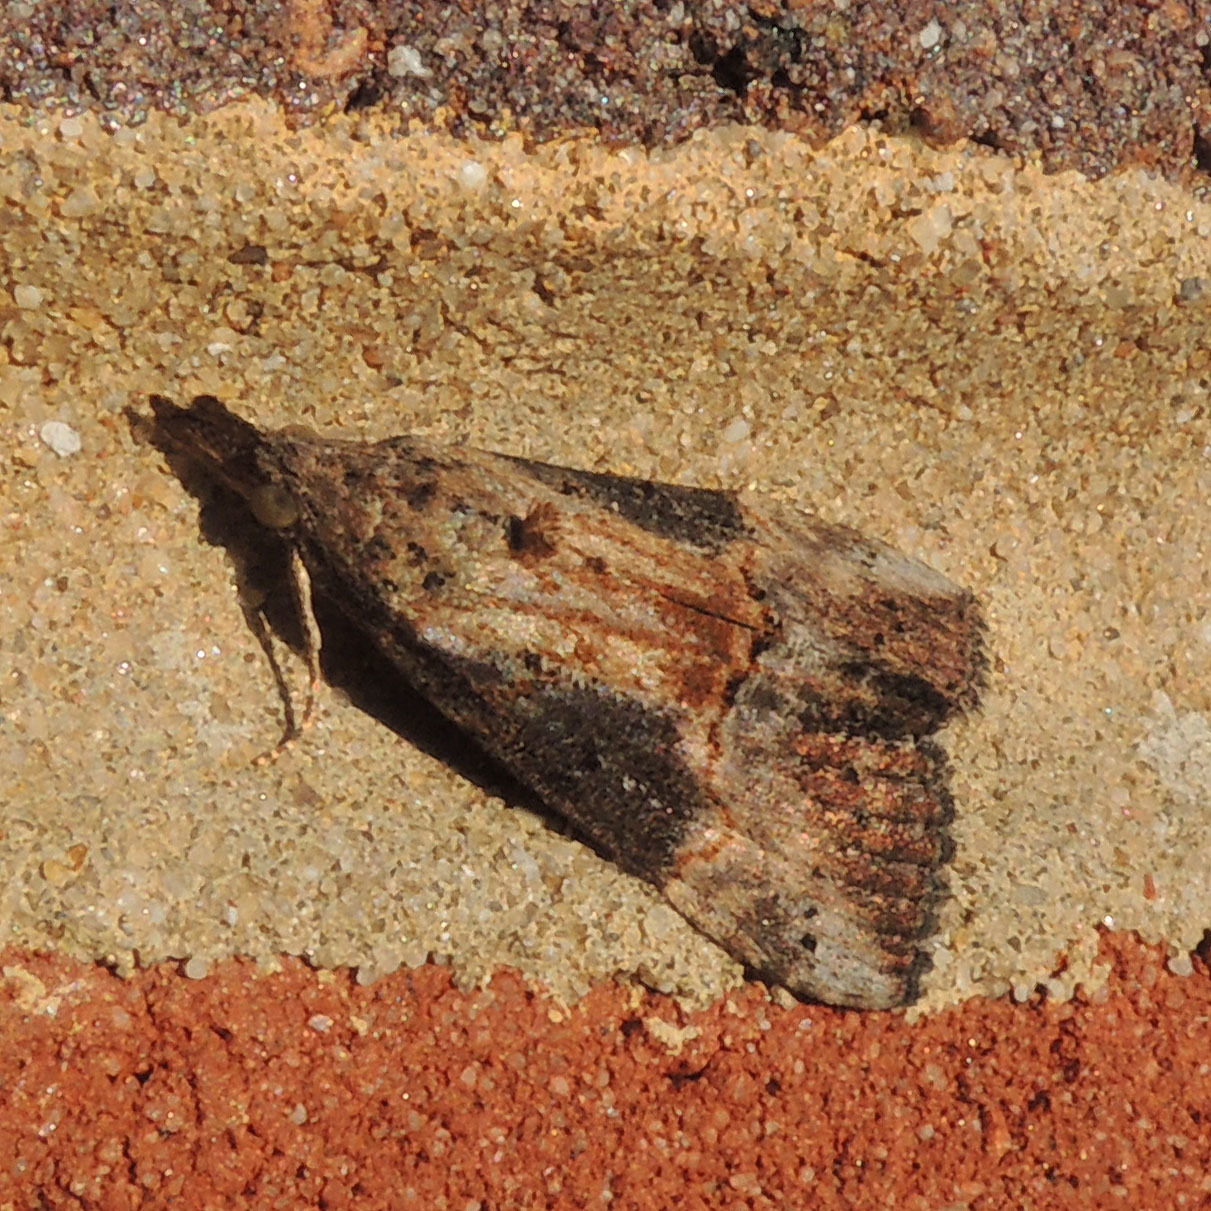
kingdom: Animalia
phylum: Arthropoda
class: Insecta
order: Lepidoptera
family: Erebidae
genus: Hypena
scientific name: Hypena scabra
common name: Green cloverworm
